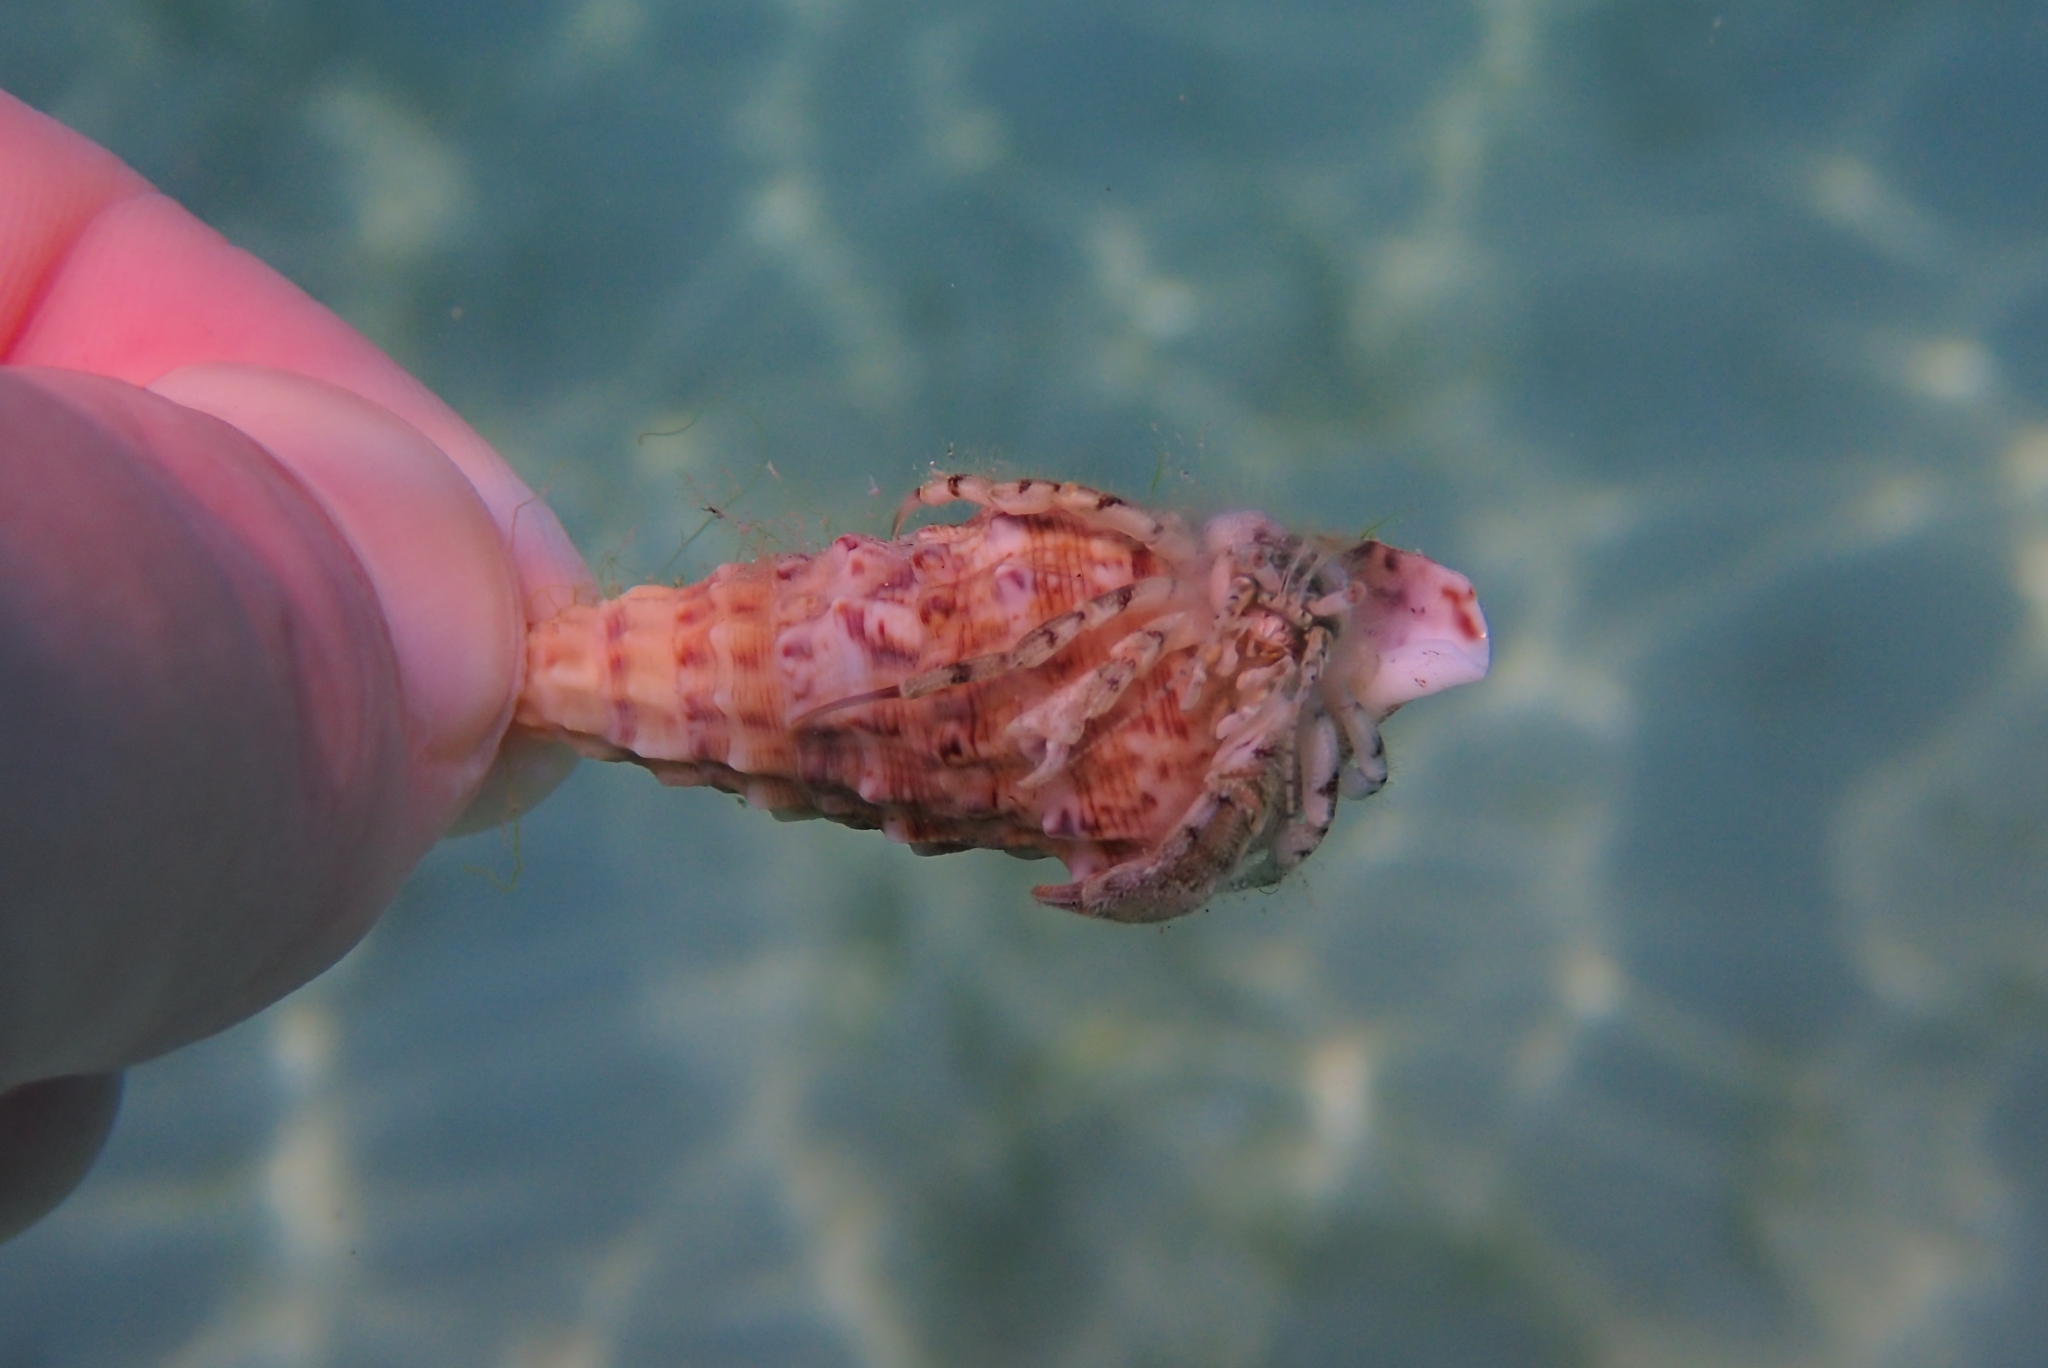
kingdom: Animalia
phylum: Arthropoda
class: Malacostraca
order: Decapoda
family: Diogenidae
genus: Diogenes
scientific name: Diogenes pugilator
